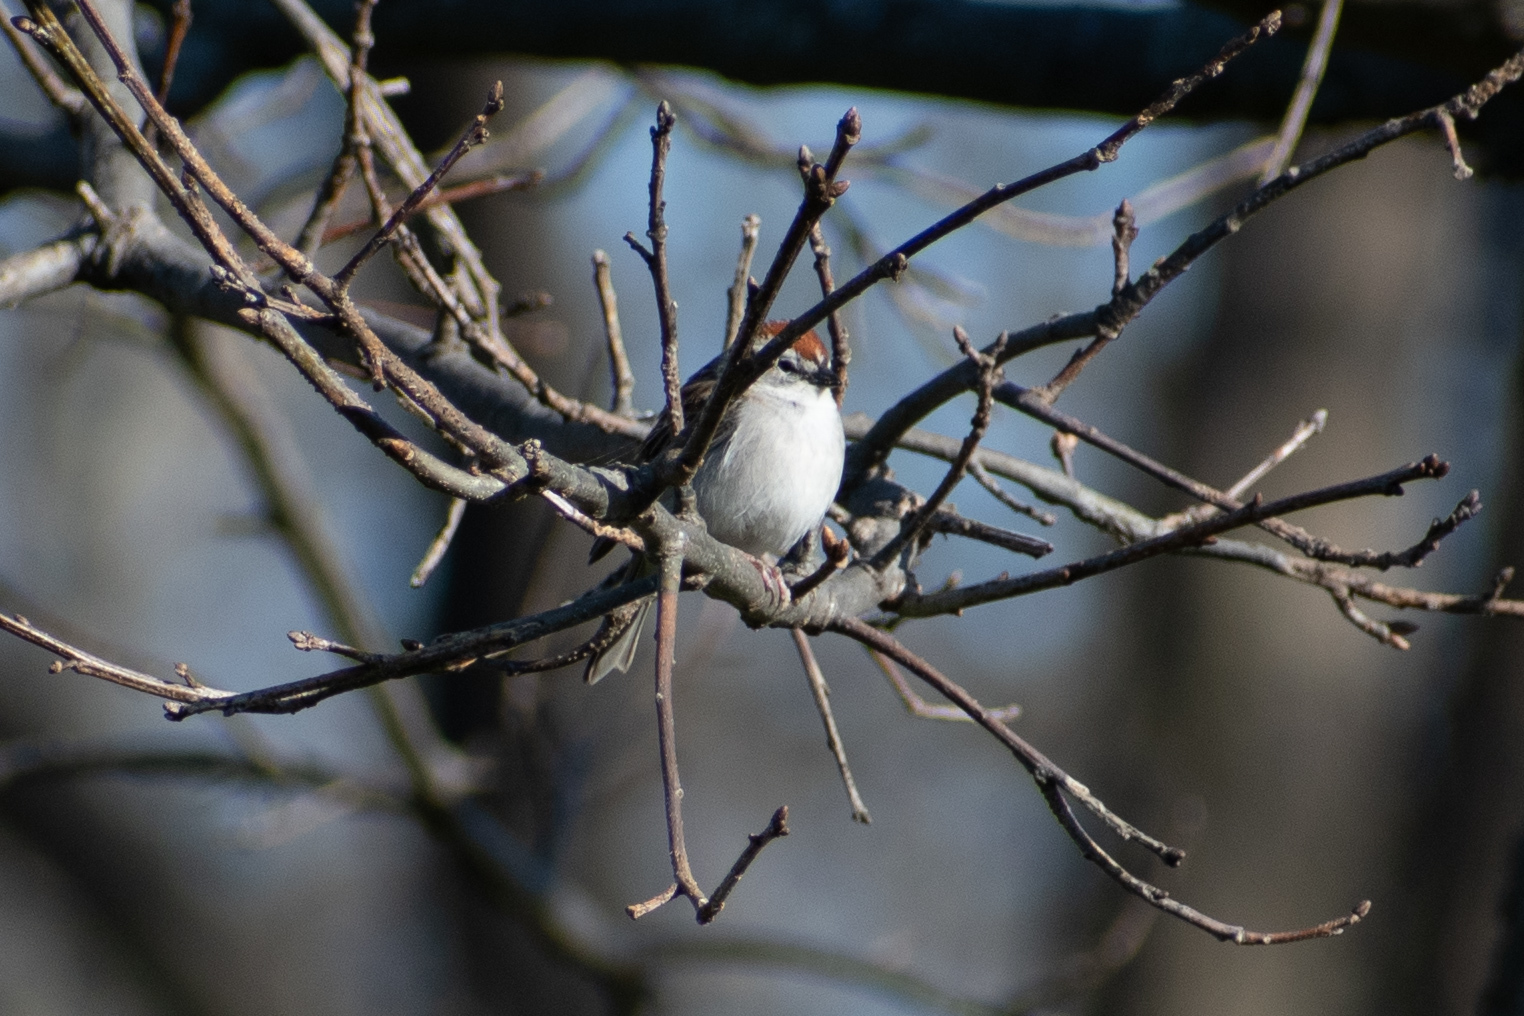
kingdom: Animalia
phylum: Chordata
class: Aves
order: Passeriformes
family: Passerellidae
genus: Spizella
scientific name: Spizella passerina
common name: Chipping sparrow
